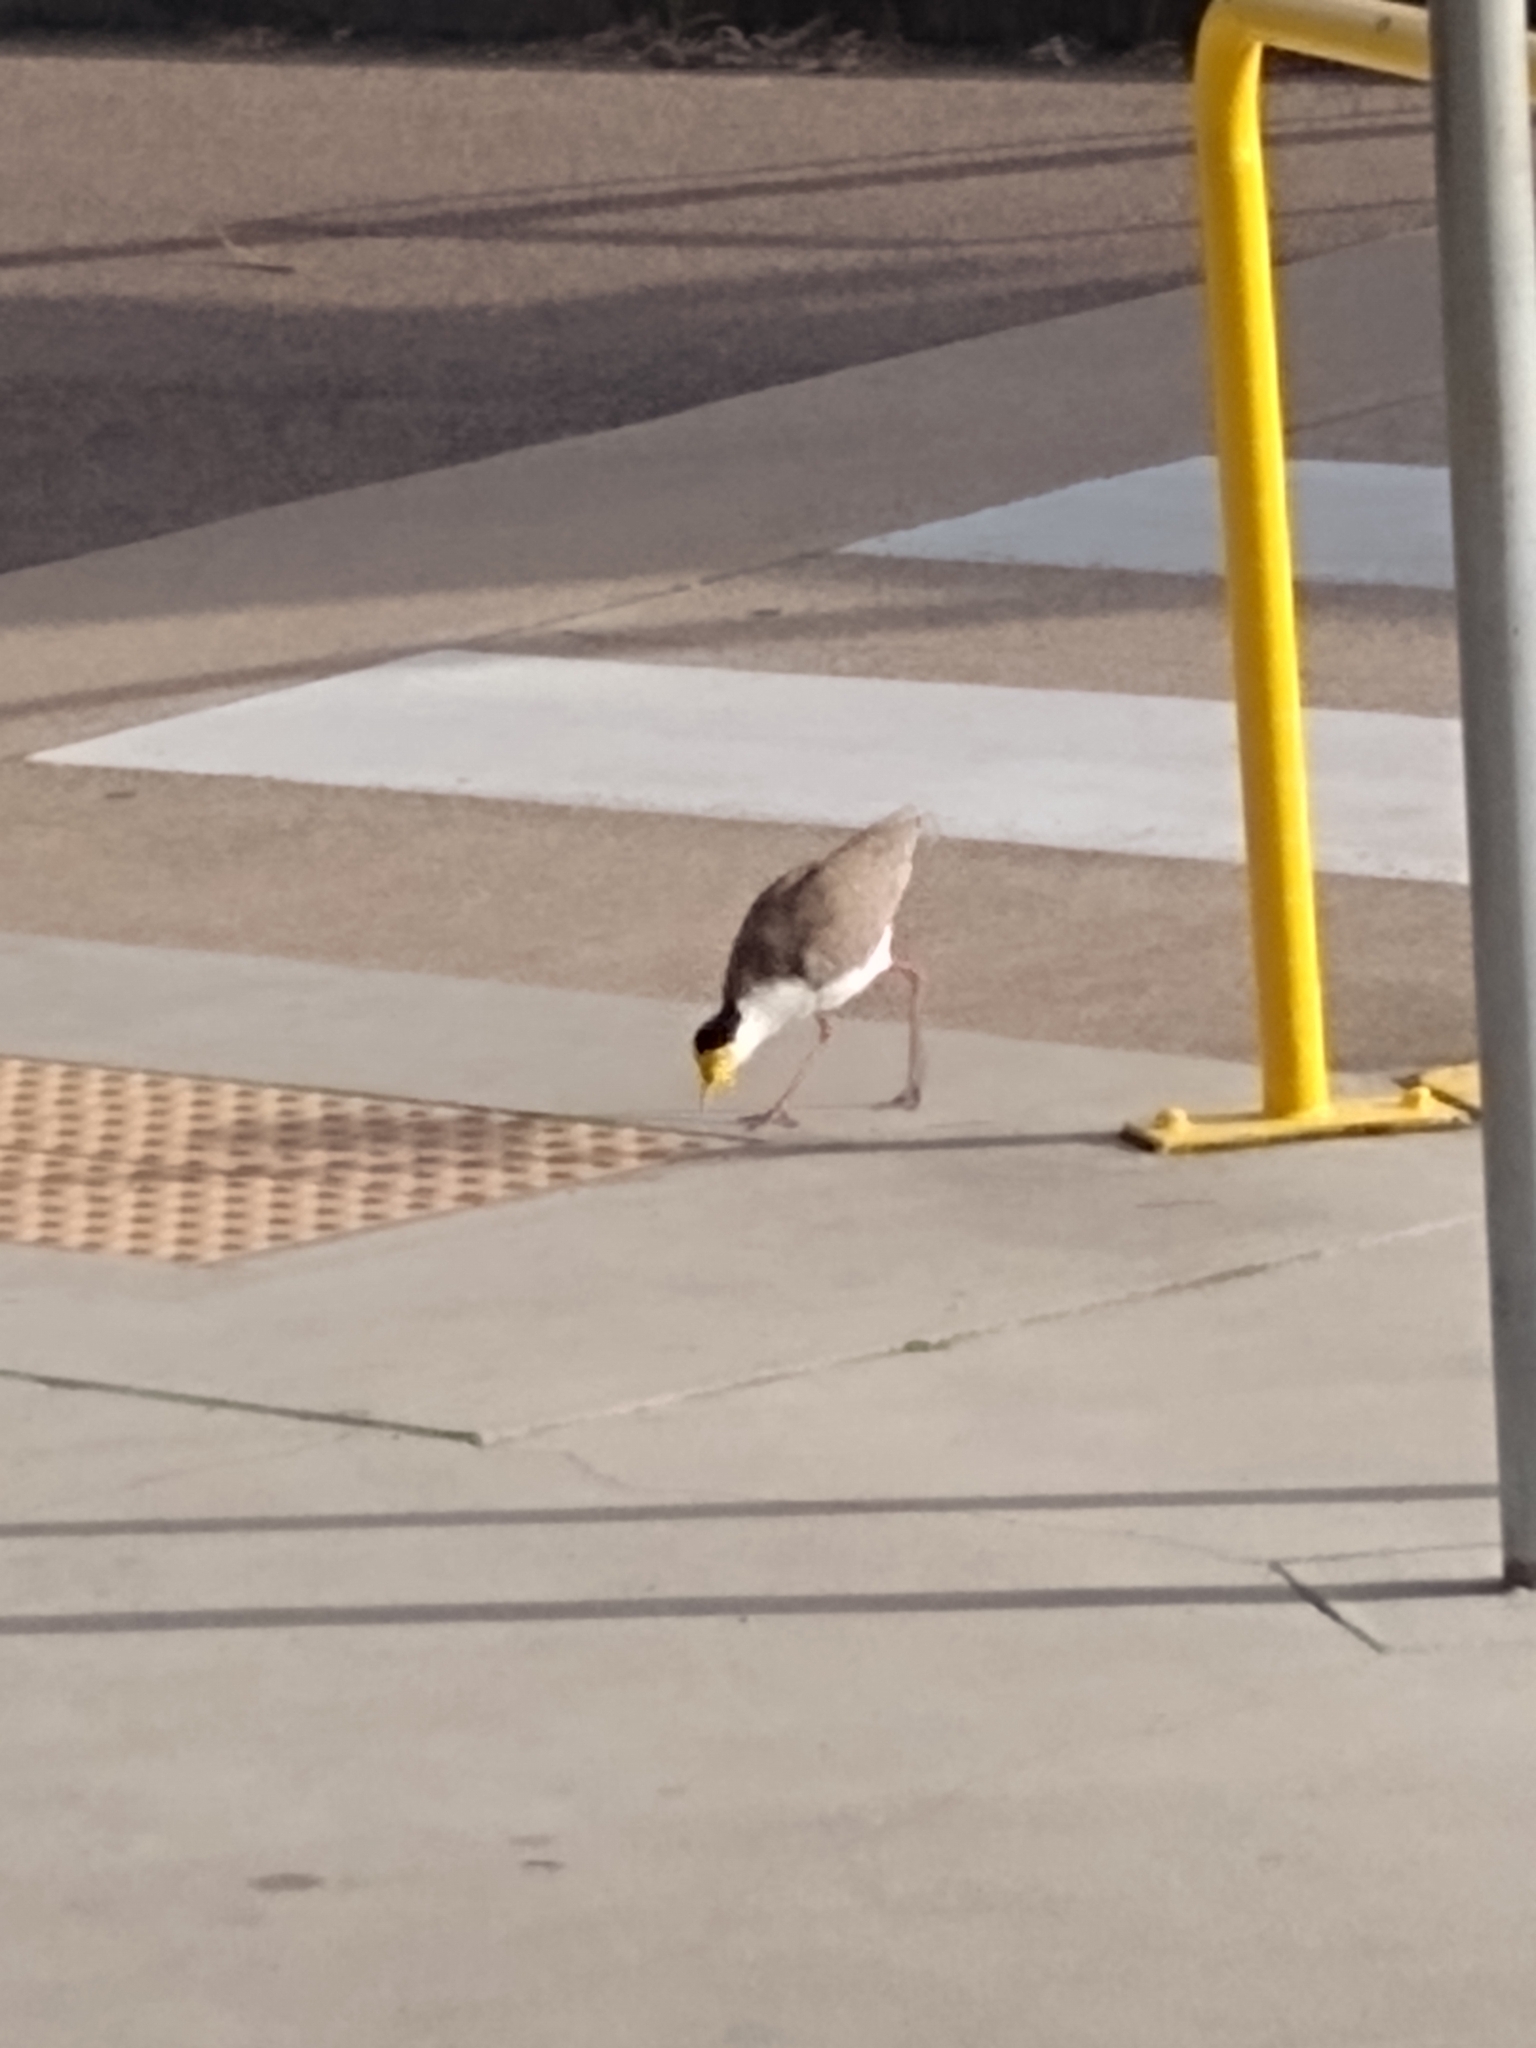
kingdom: Animalia
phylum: Chordata
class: Aves
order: Charadriiformes
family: Charadriidae
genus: Vanellus
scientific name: Vanellus miles
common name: Masked lapwing
